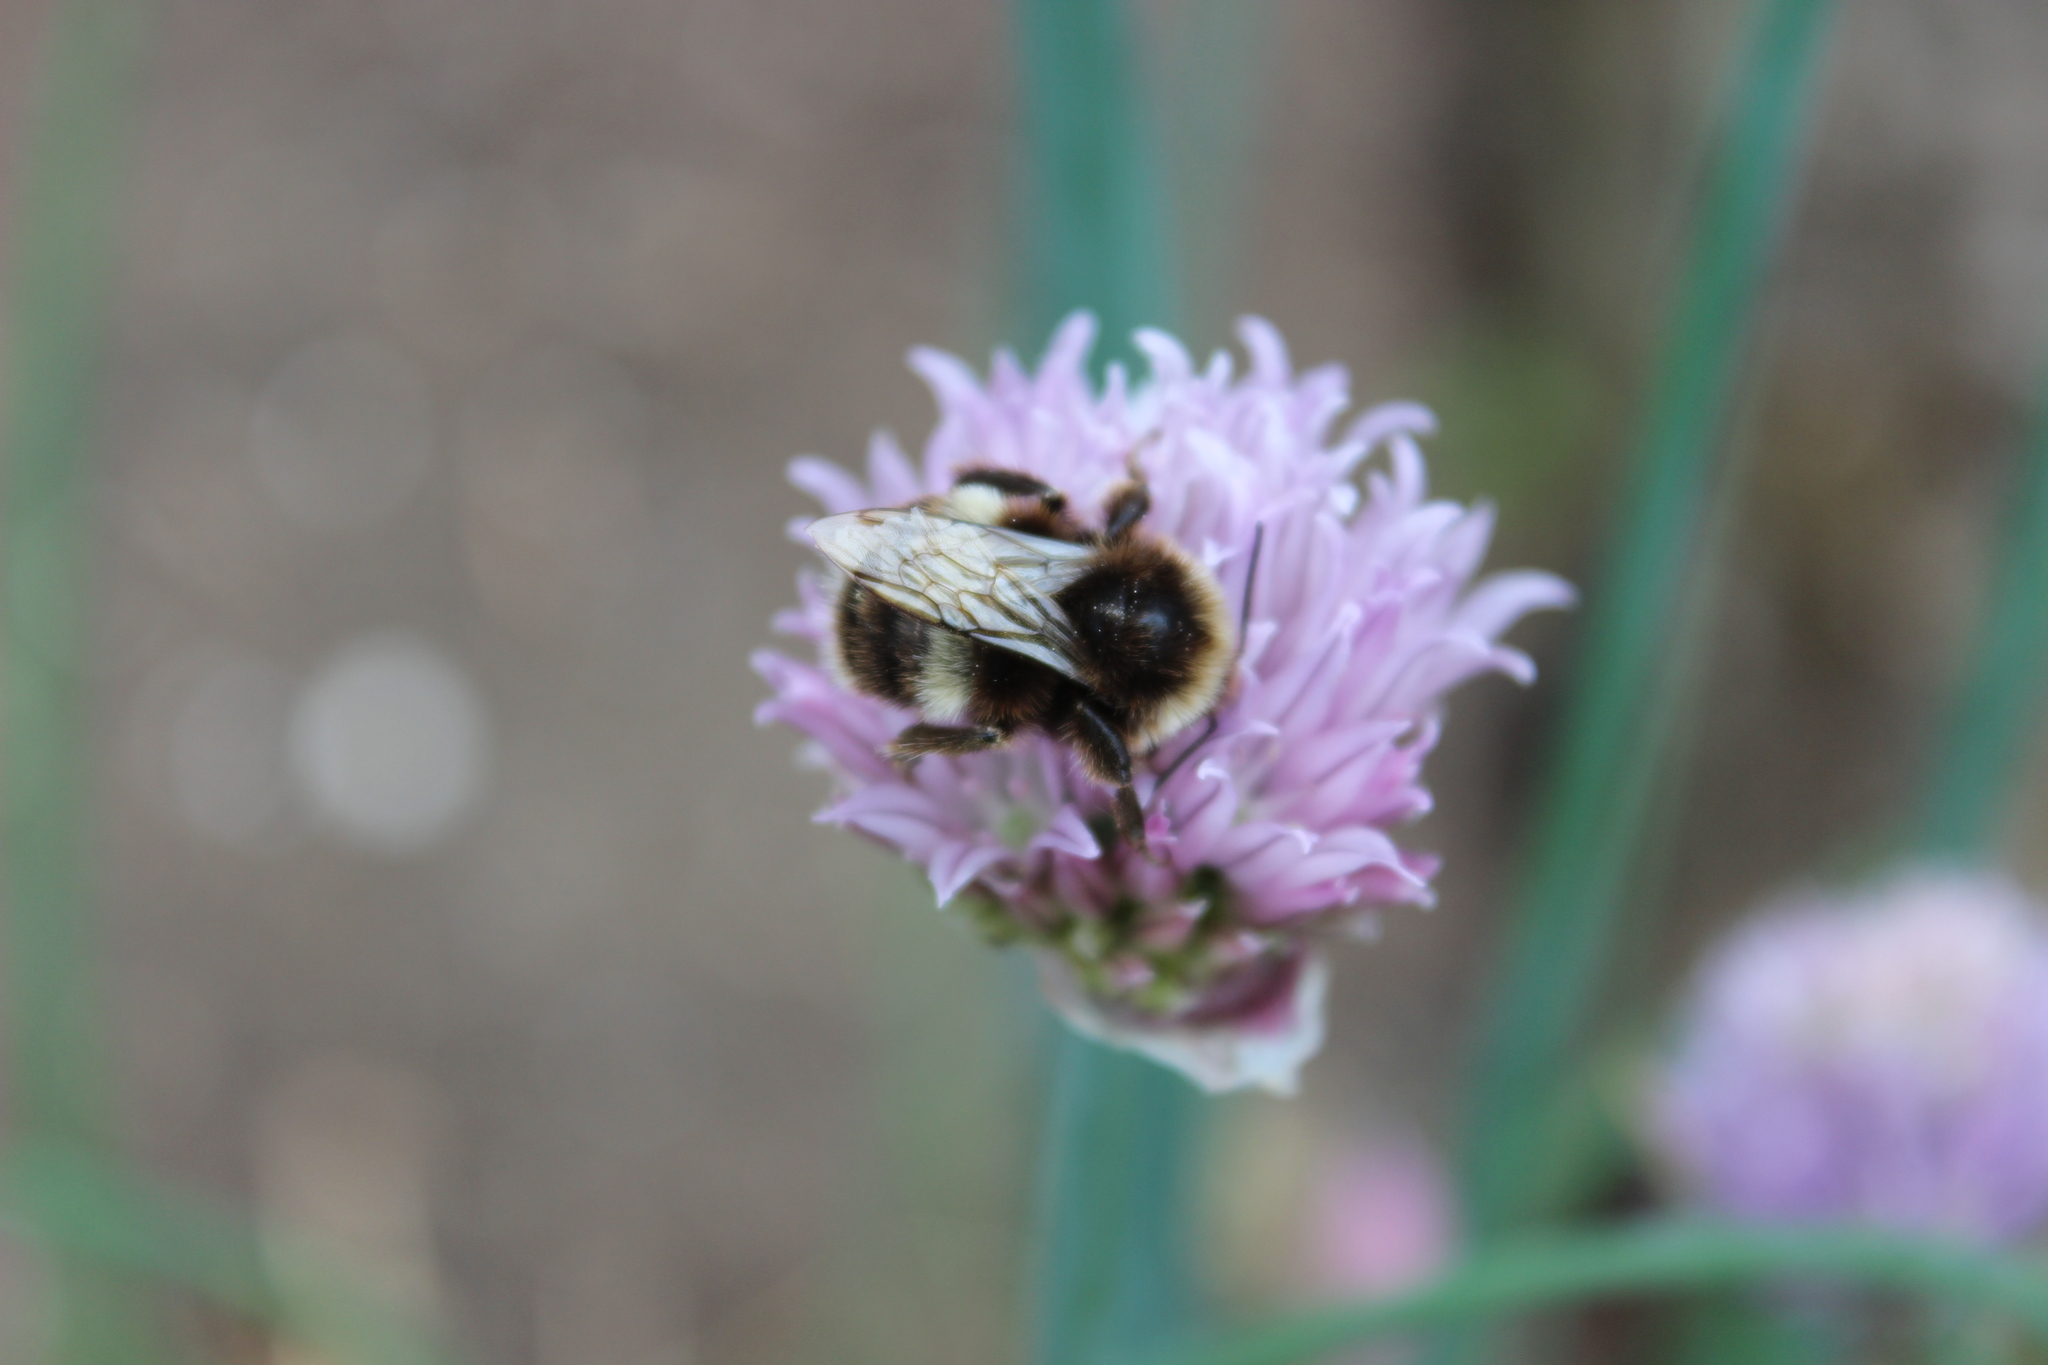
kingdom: Animalia
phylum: Arthropoda
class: Insecta
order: Hymenoptera
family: Apidae
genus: Bombus
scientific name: Bombus terrestris
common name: Buff-tailed bumblebee
